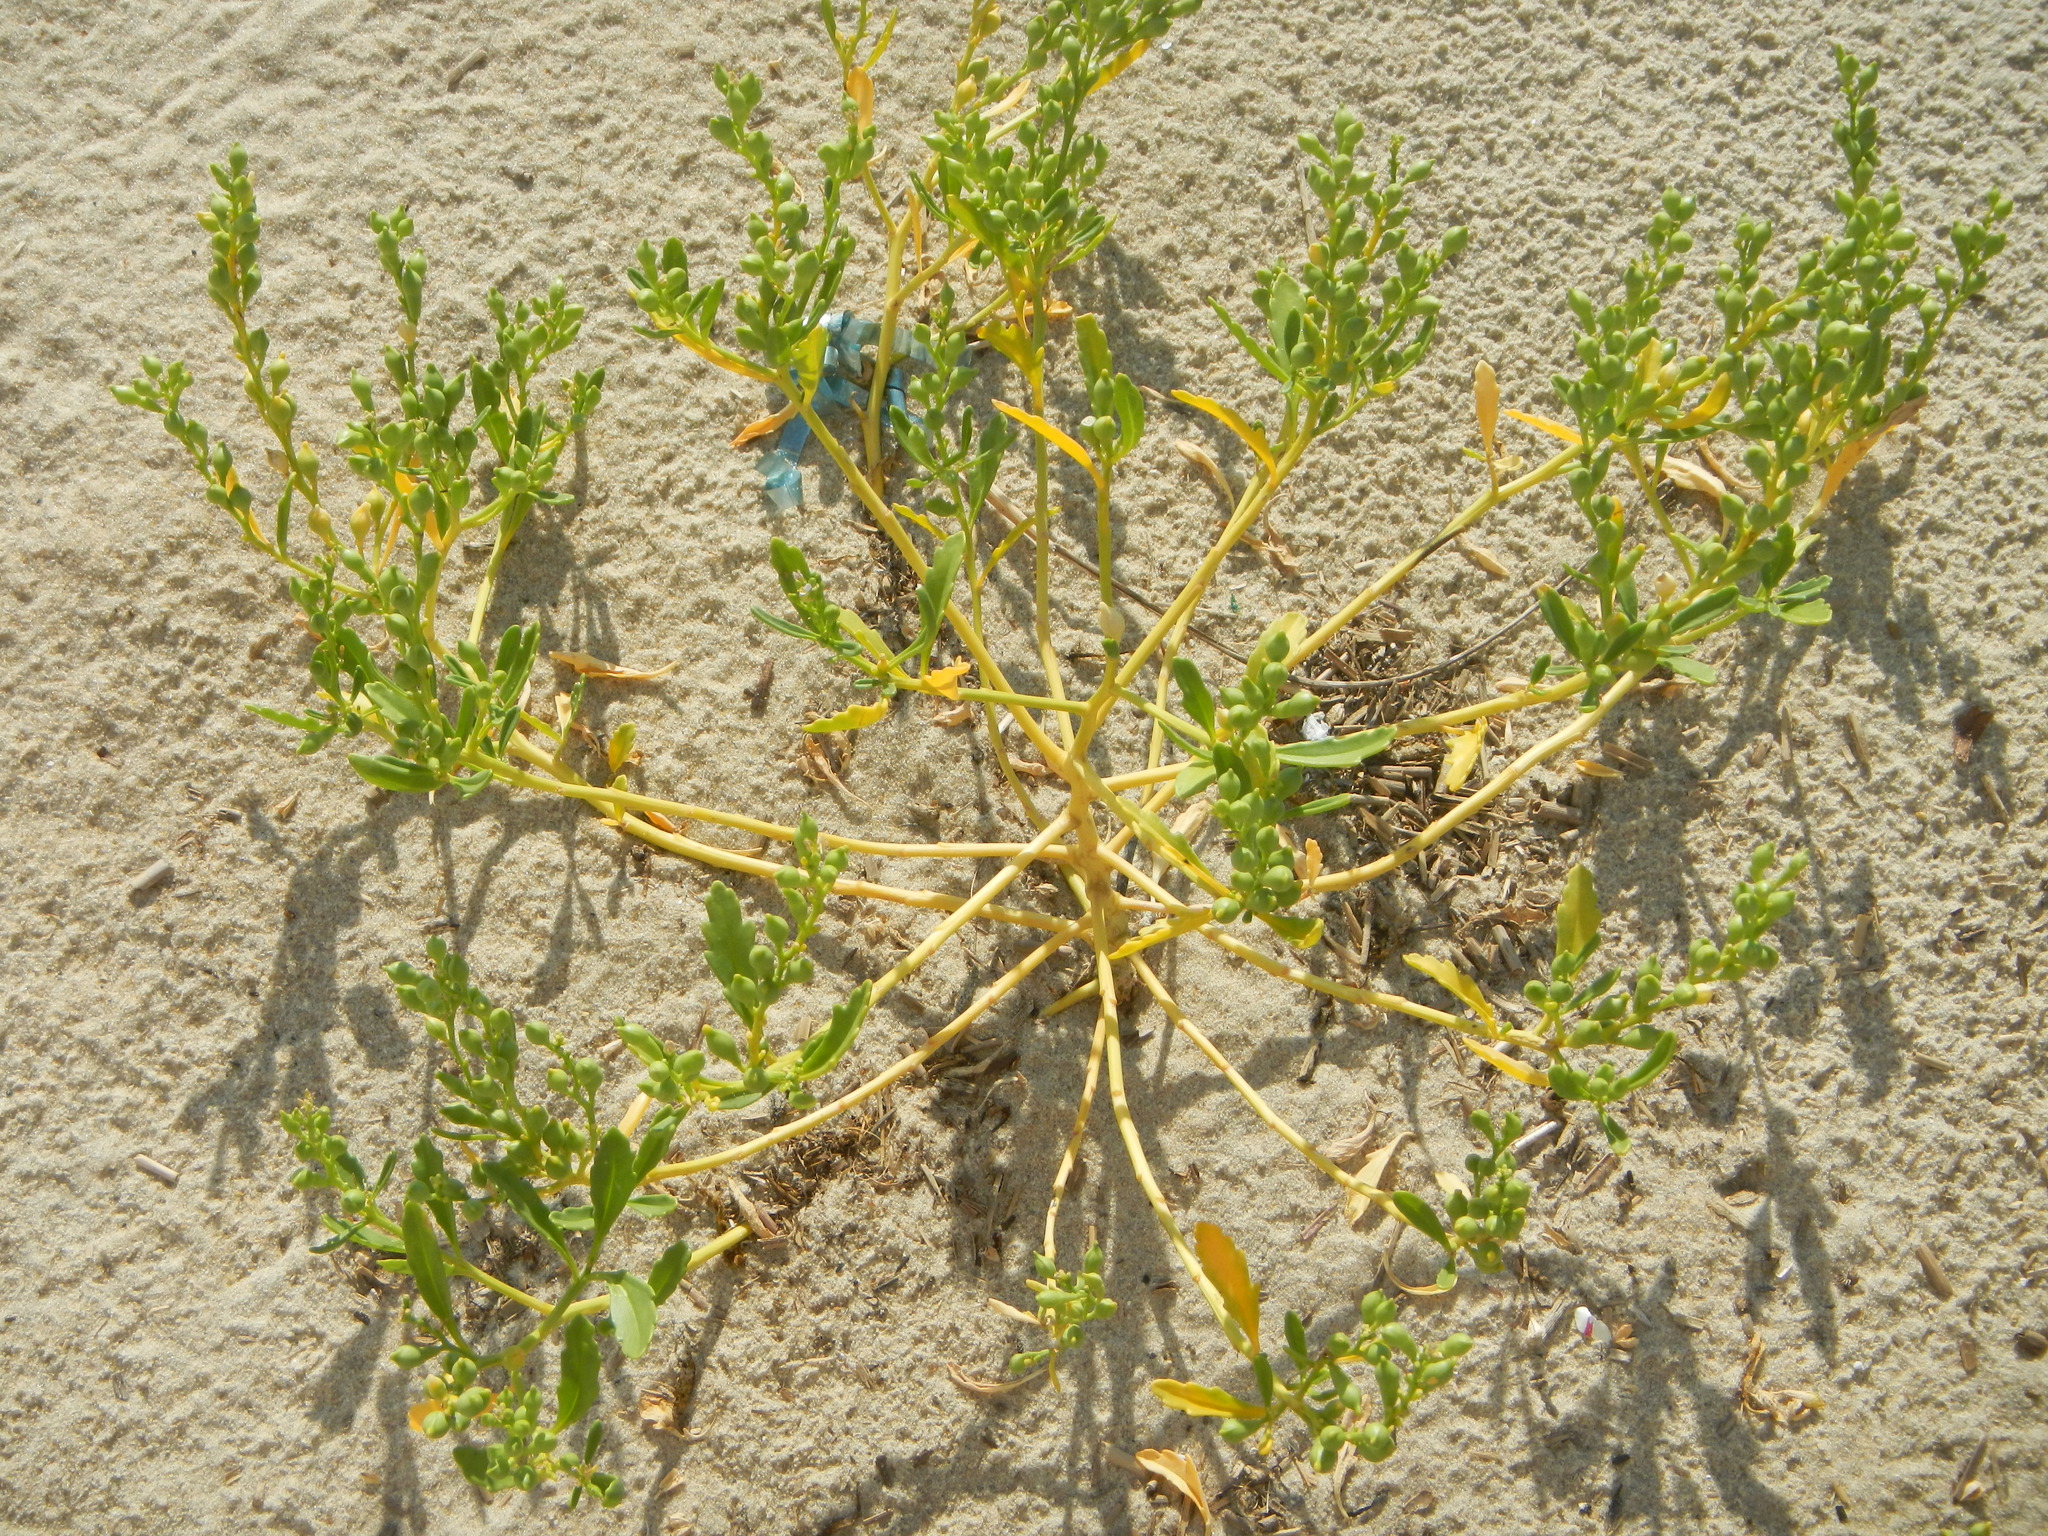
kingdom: Plantae
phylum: Tracheophyta
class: Magnoliopsida
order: Brassicales
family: Brassicaceae
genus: Cakile
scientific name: Cakile edentula
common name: American sea rocket
